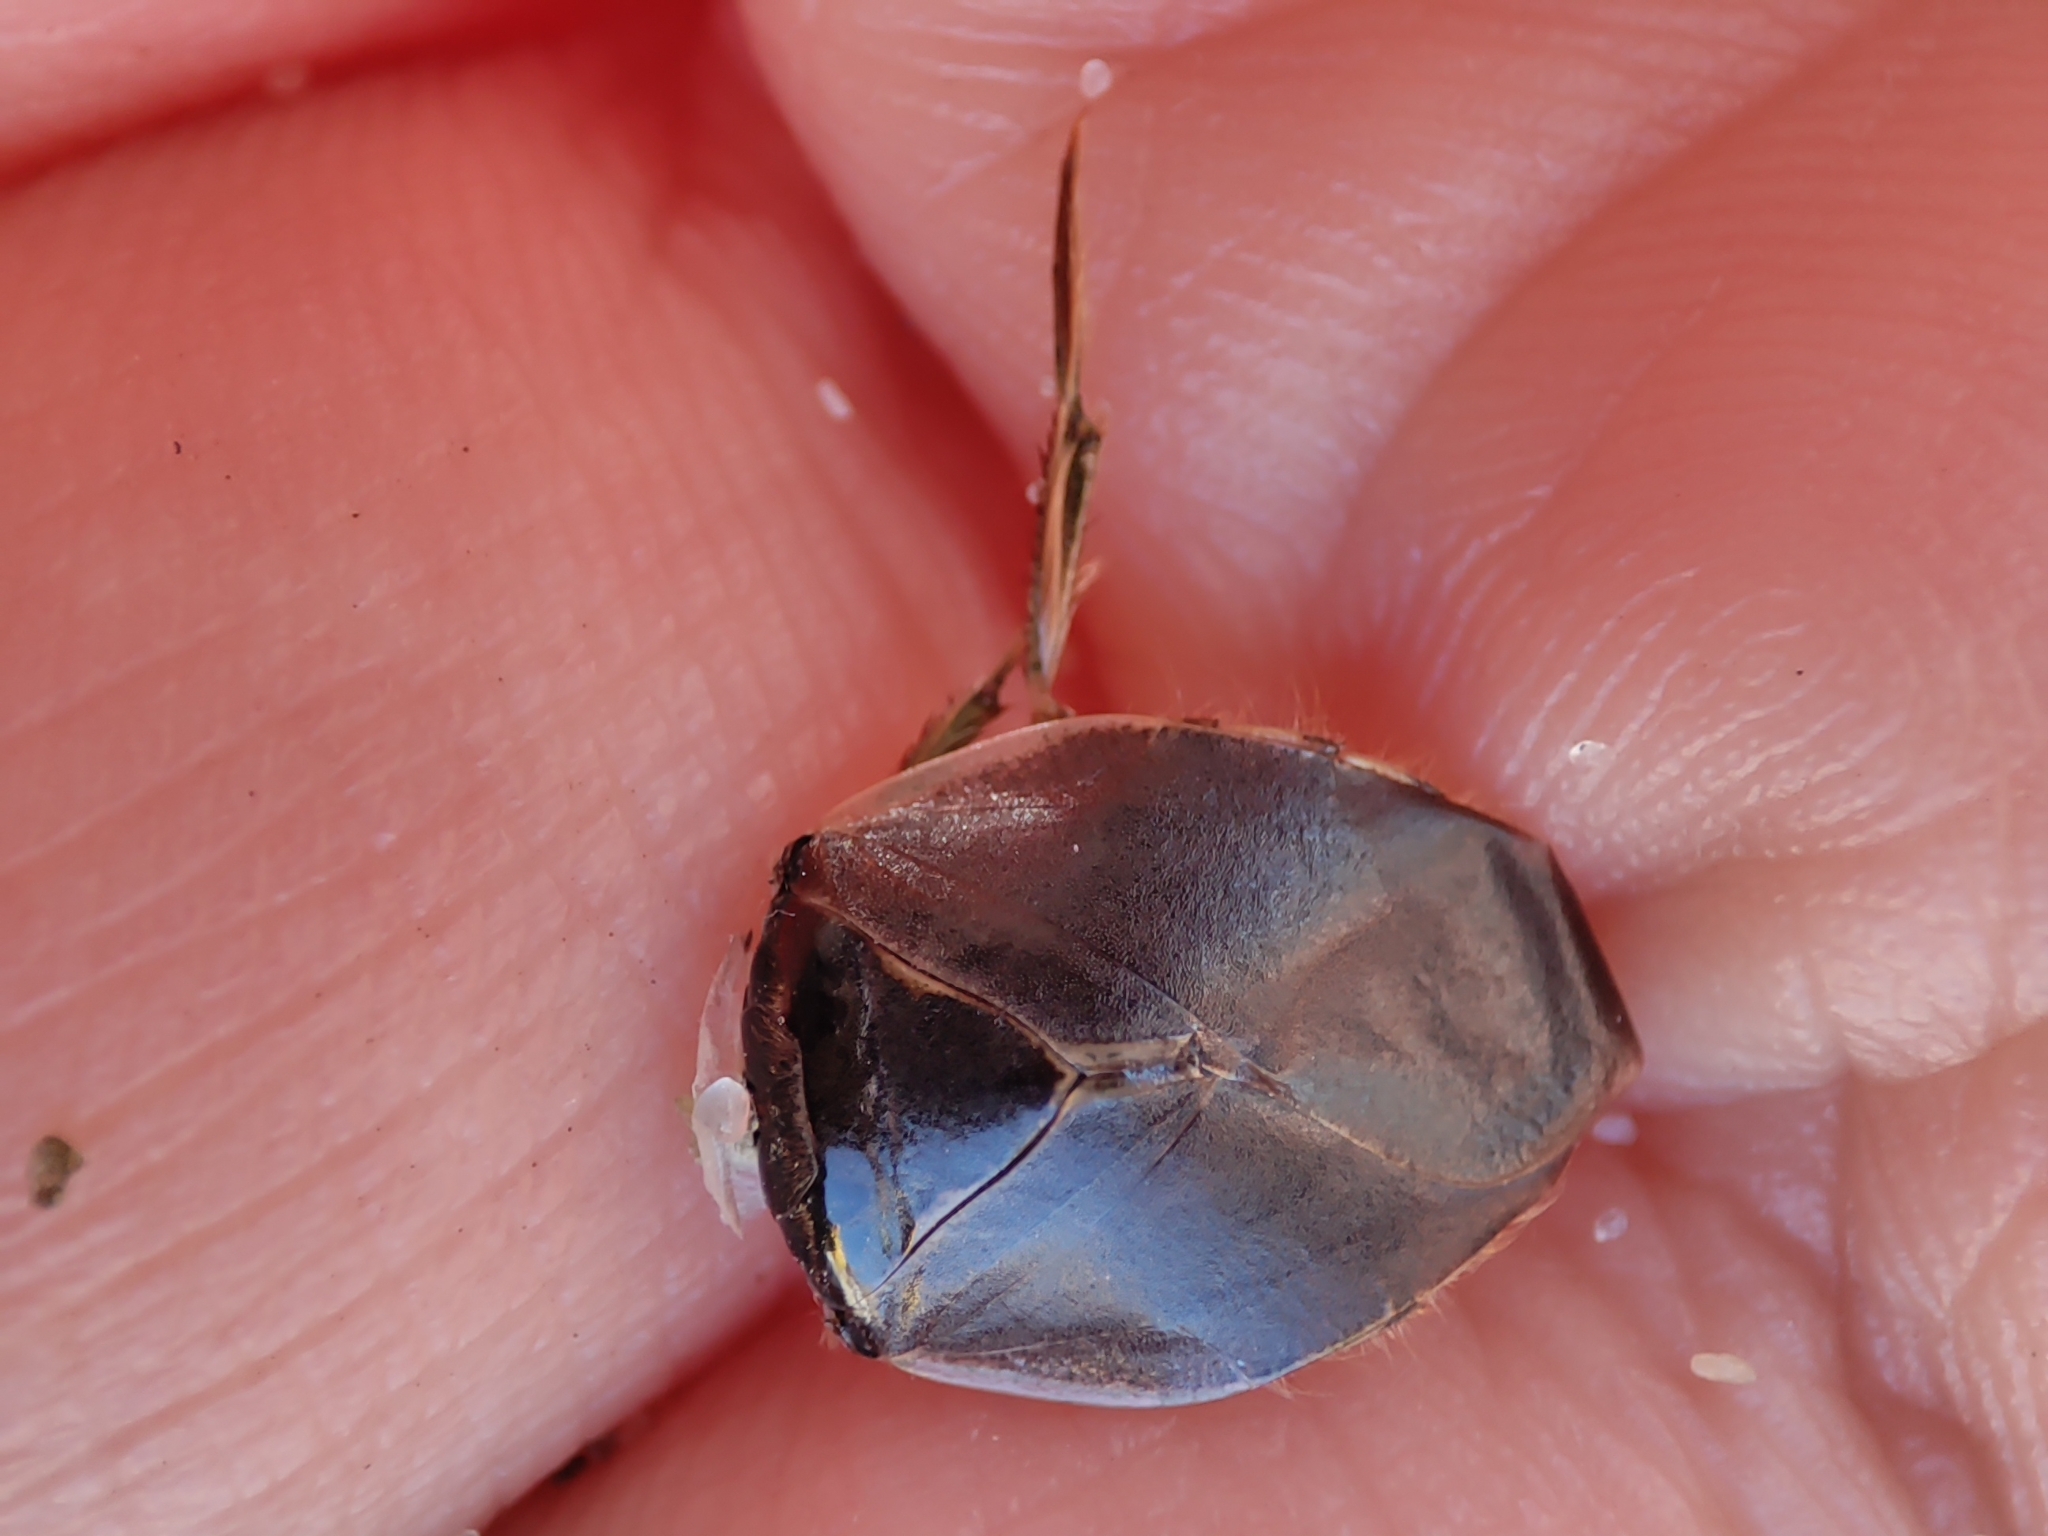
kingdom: Animalia
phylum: Arthropoda
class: Insecta
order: Hemiptera
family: Naucoridae
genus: Ilyocoris
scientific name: Ilyocoris cimicoides
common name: Saucer bugs
